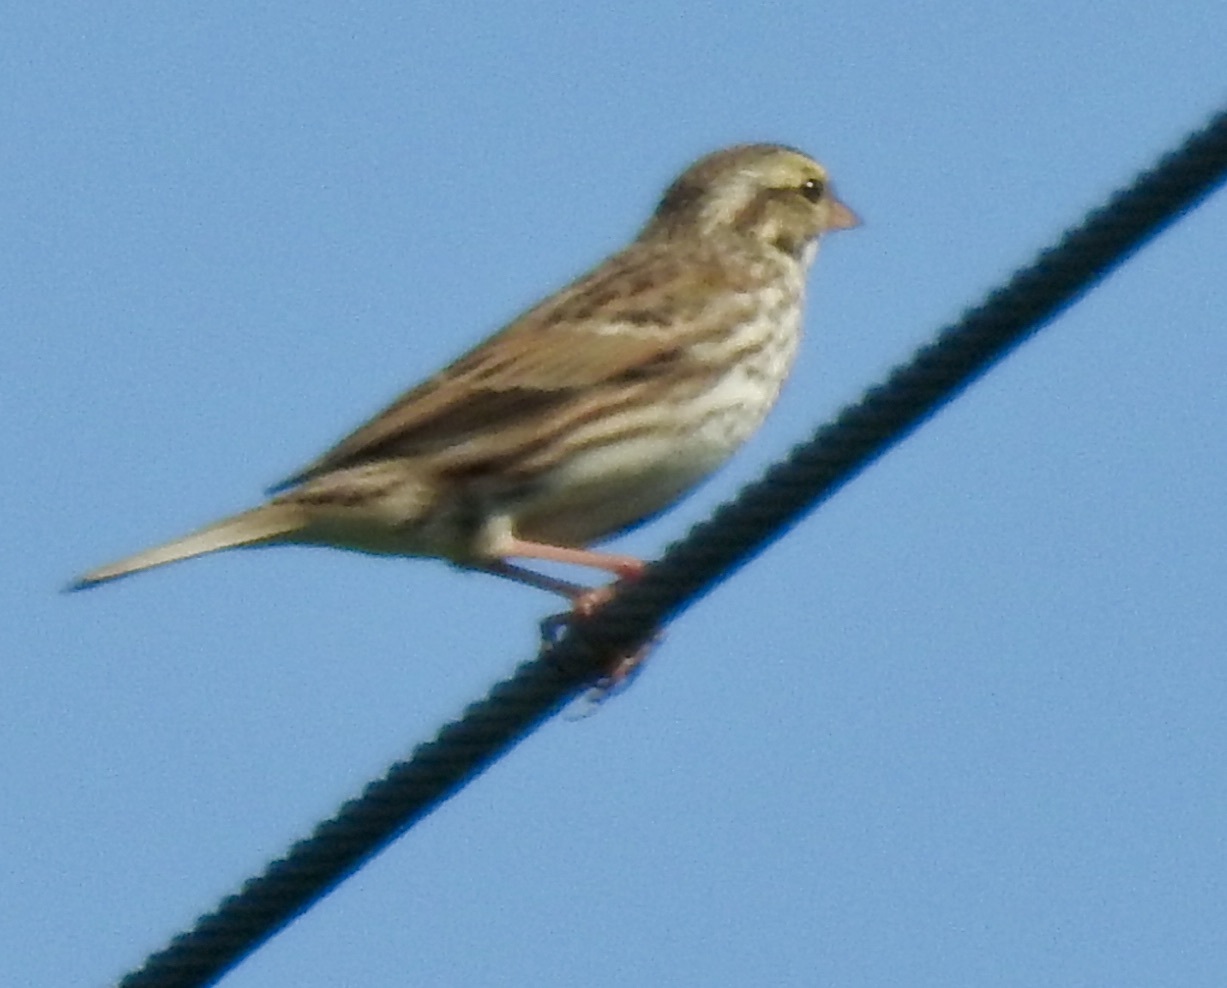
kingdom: Animalia
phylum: Chordata
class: Aves
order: Passeriformes
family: Passerellidae
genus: Passerculus
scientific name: Passerculus sandwichensis
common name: Savannah sparrow
